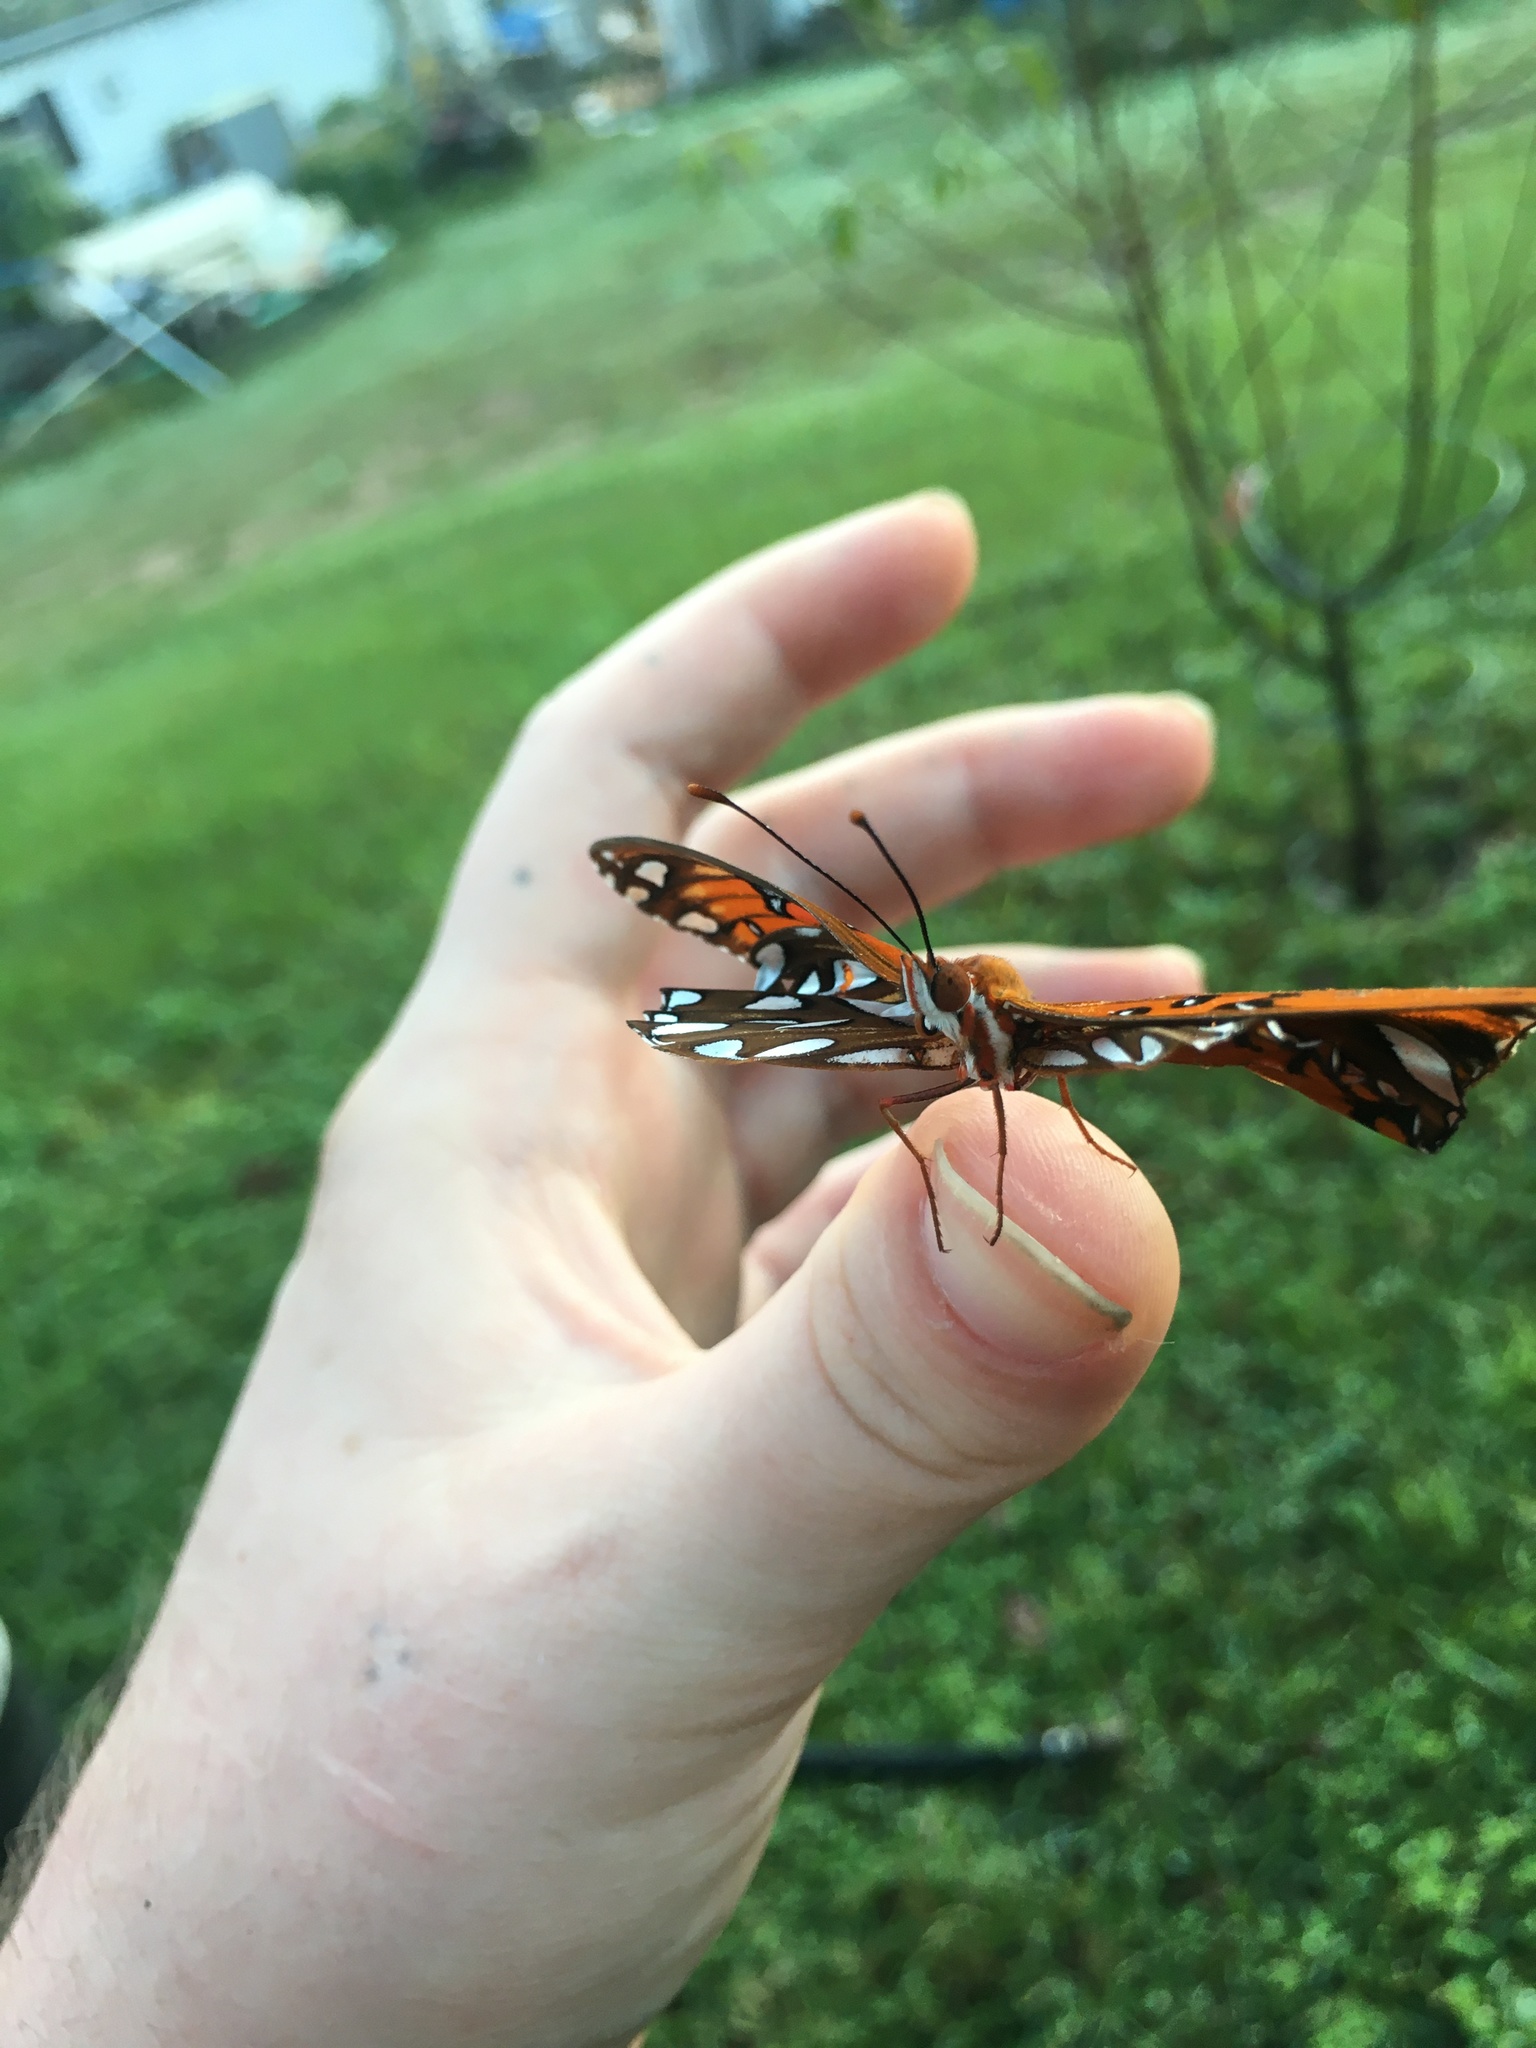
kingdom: Animalia
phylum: Arthropoda
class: Insecta
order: Lepidoptera
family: Nymphalidae
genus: Dione
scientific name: Dione vanillae
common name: Gulf fritillary
